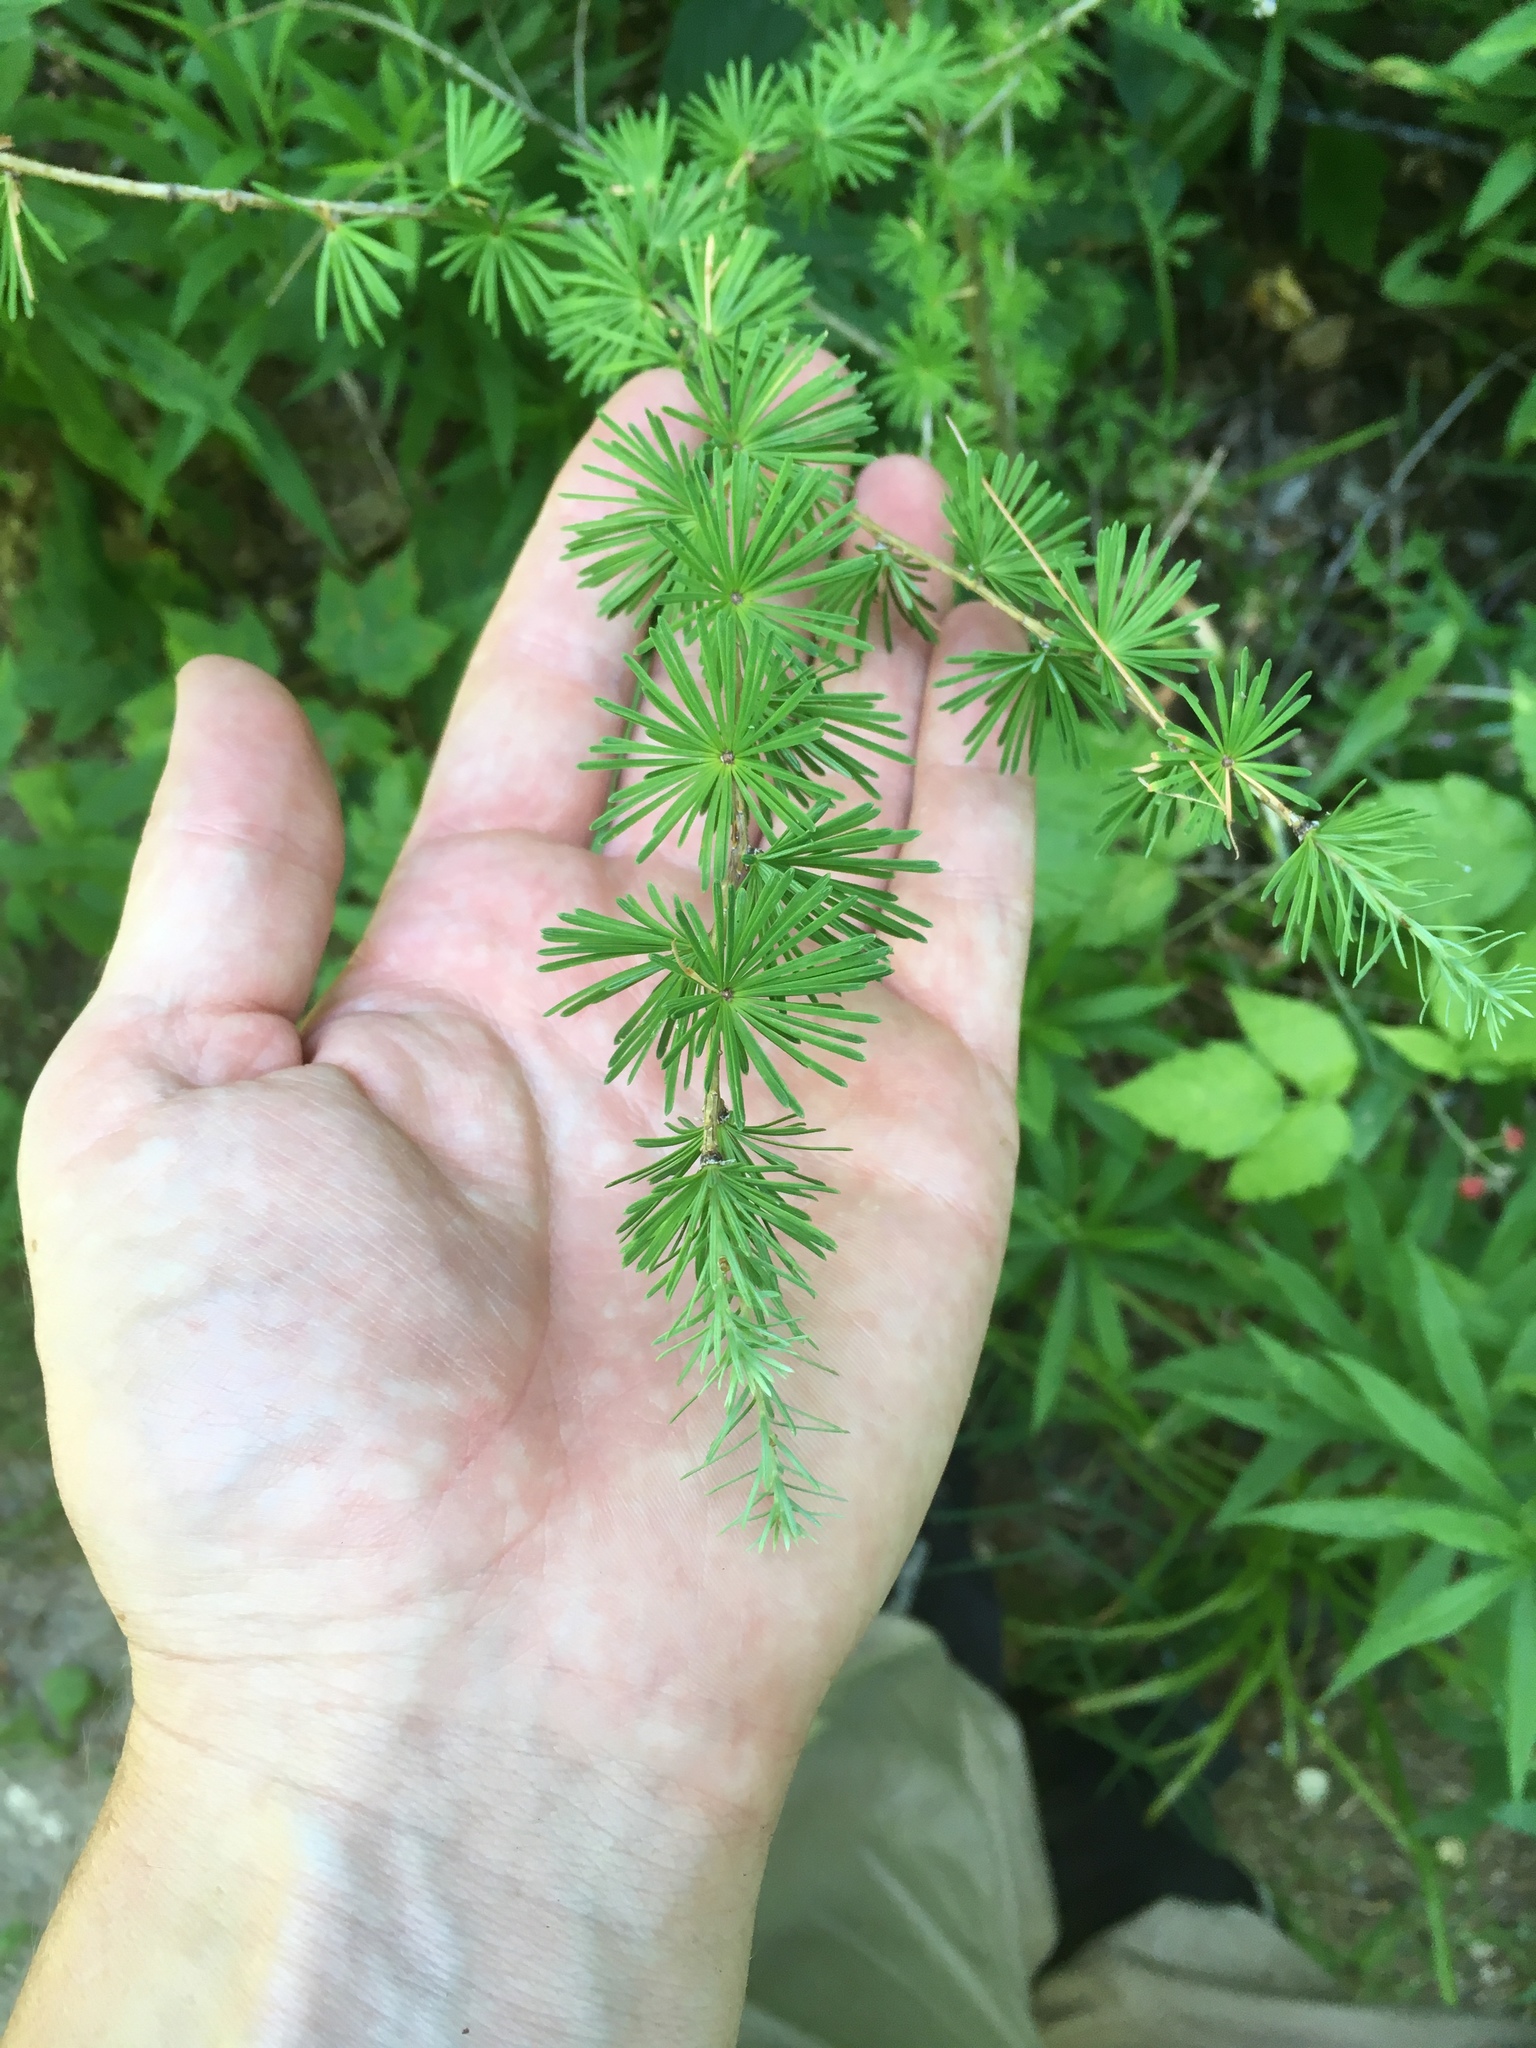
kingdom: Plantae
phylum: Tracheophyta
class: Pinopsida
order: Pinales
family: Pinaceae
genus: Larix
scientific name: Larix laricina
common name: American larch
